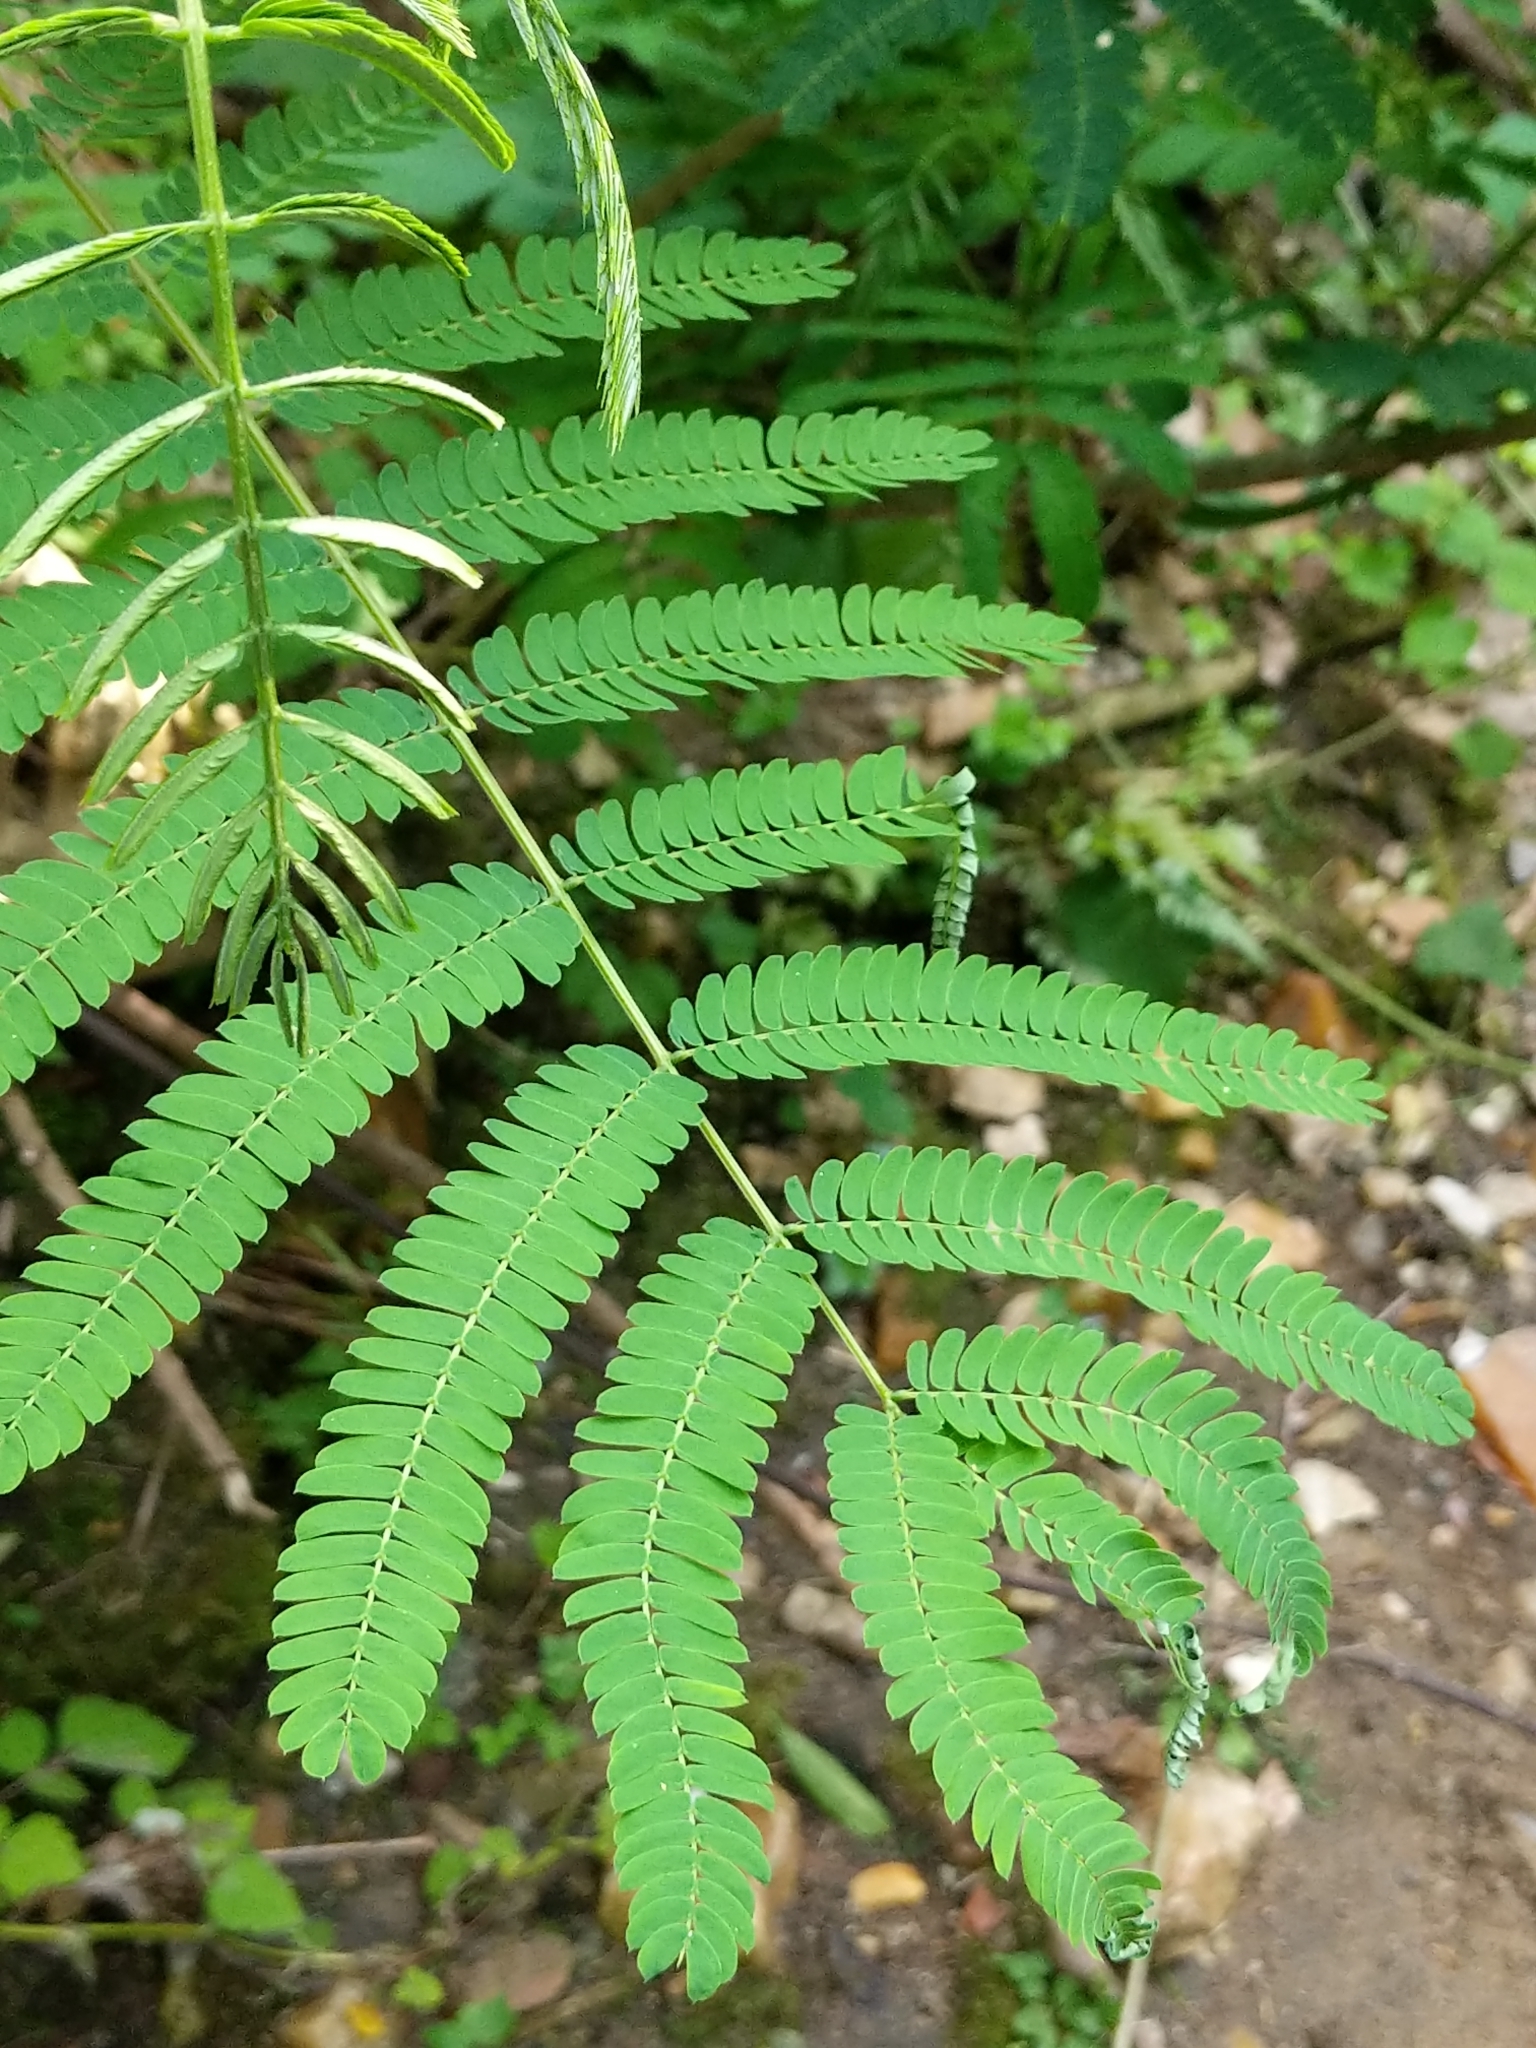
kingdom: Plantae
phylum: Tracheophyta
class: Magnoliopsida
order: Fabales
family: Fabaceae
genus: Albizia
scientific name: Albizia julibrissin
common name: Silktree
